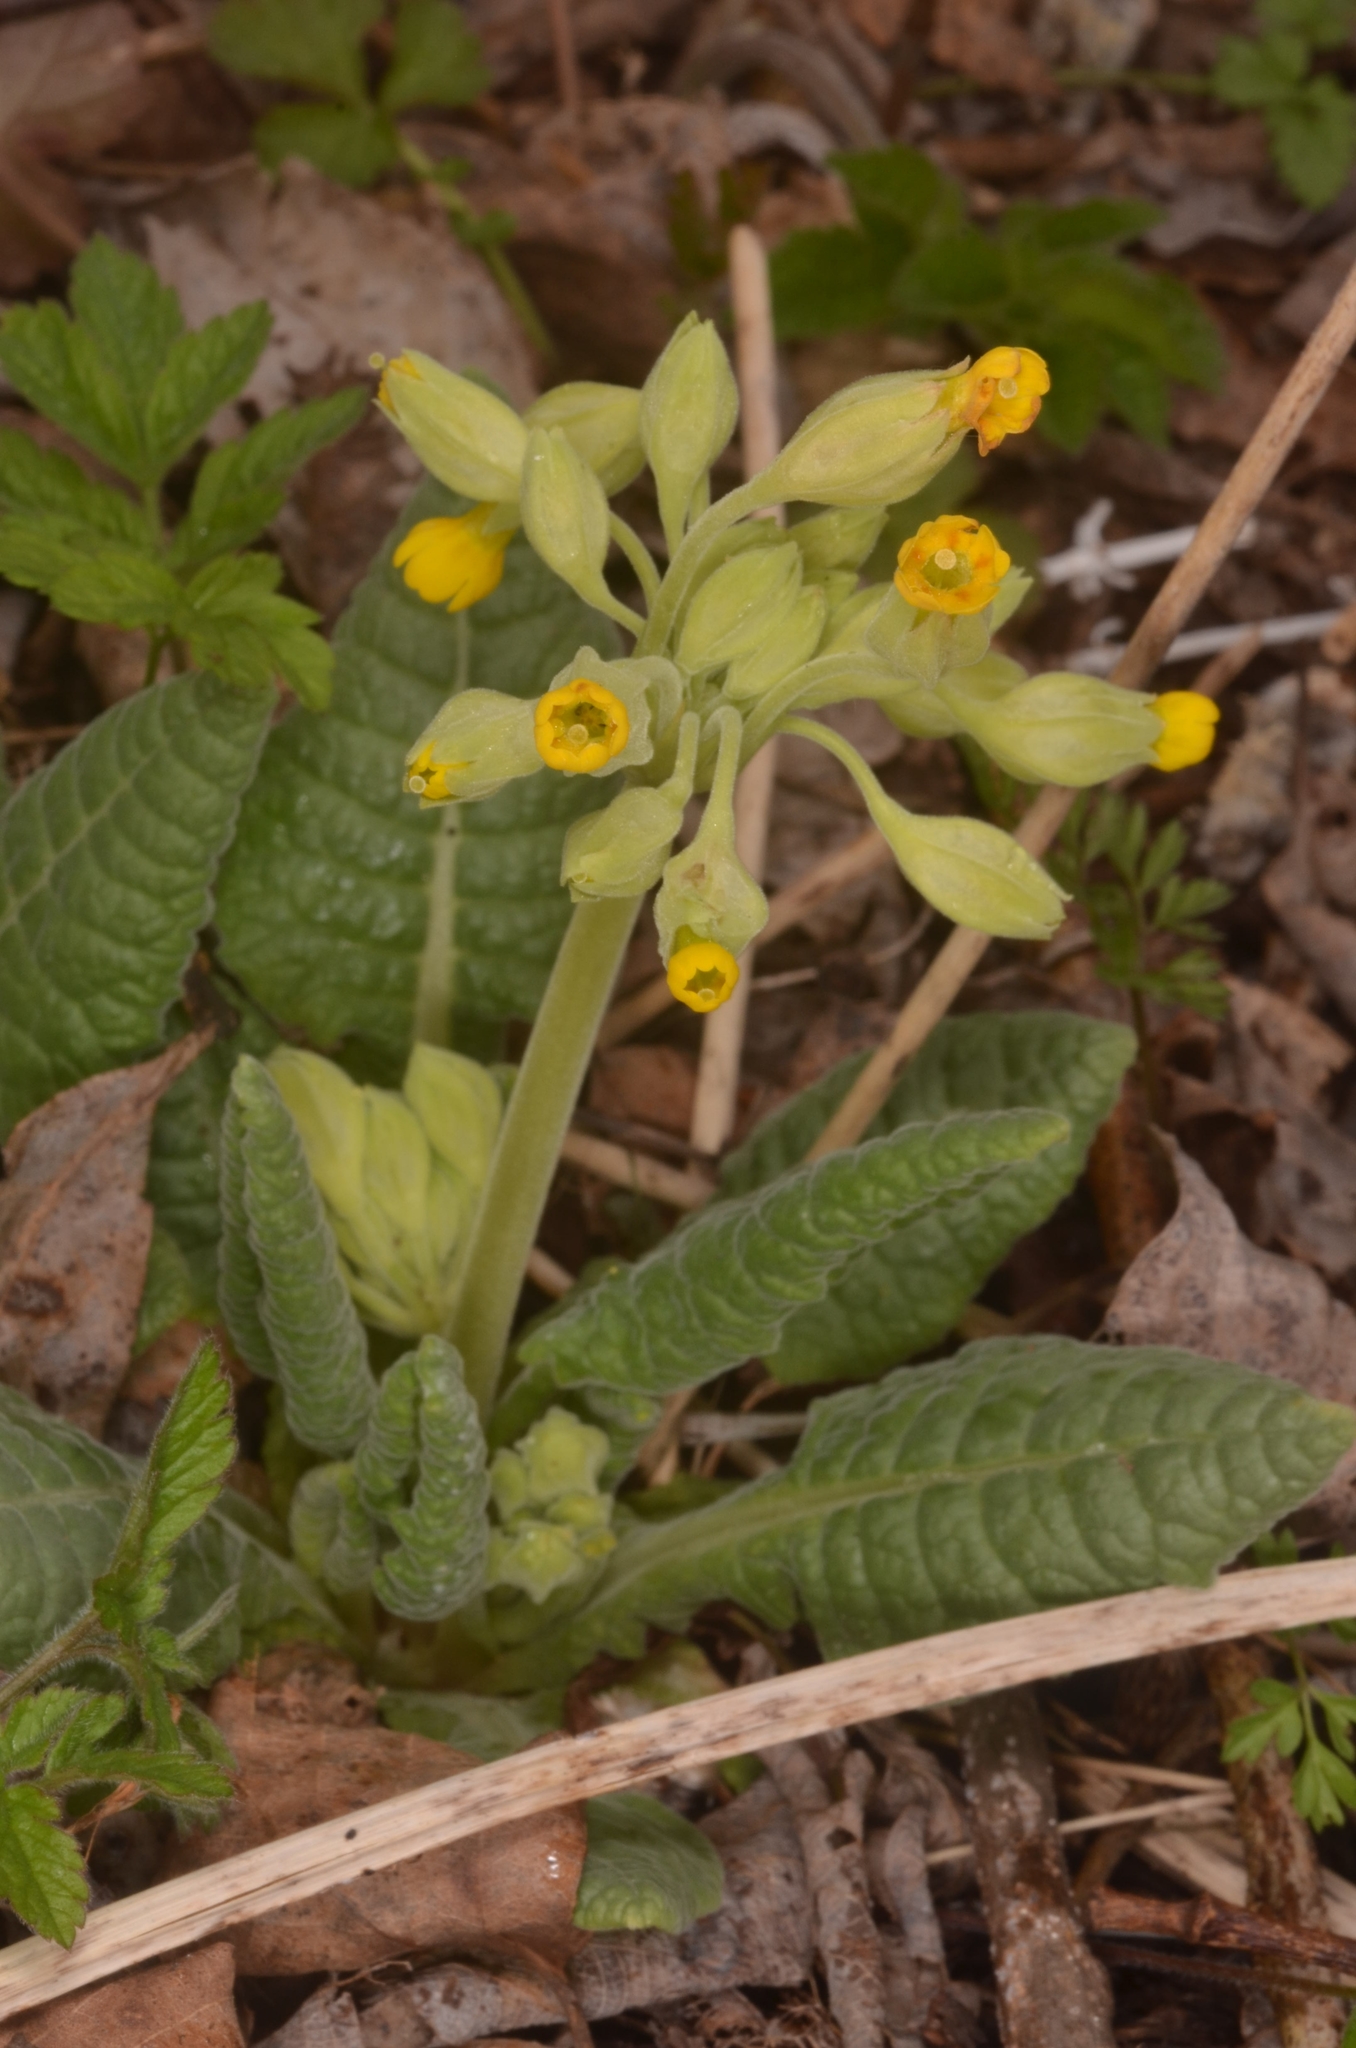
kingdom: Plantae
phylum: Tracheophyta
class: Magnoliopsida
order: Ericales
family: Primulaceae
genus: Primula
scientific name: Primula veris
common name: Cowslip
